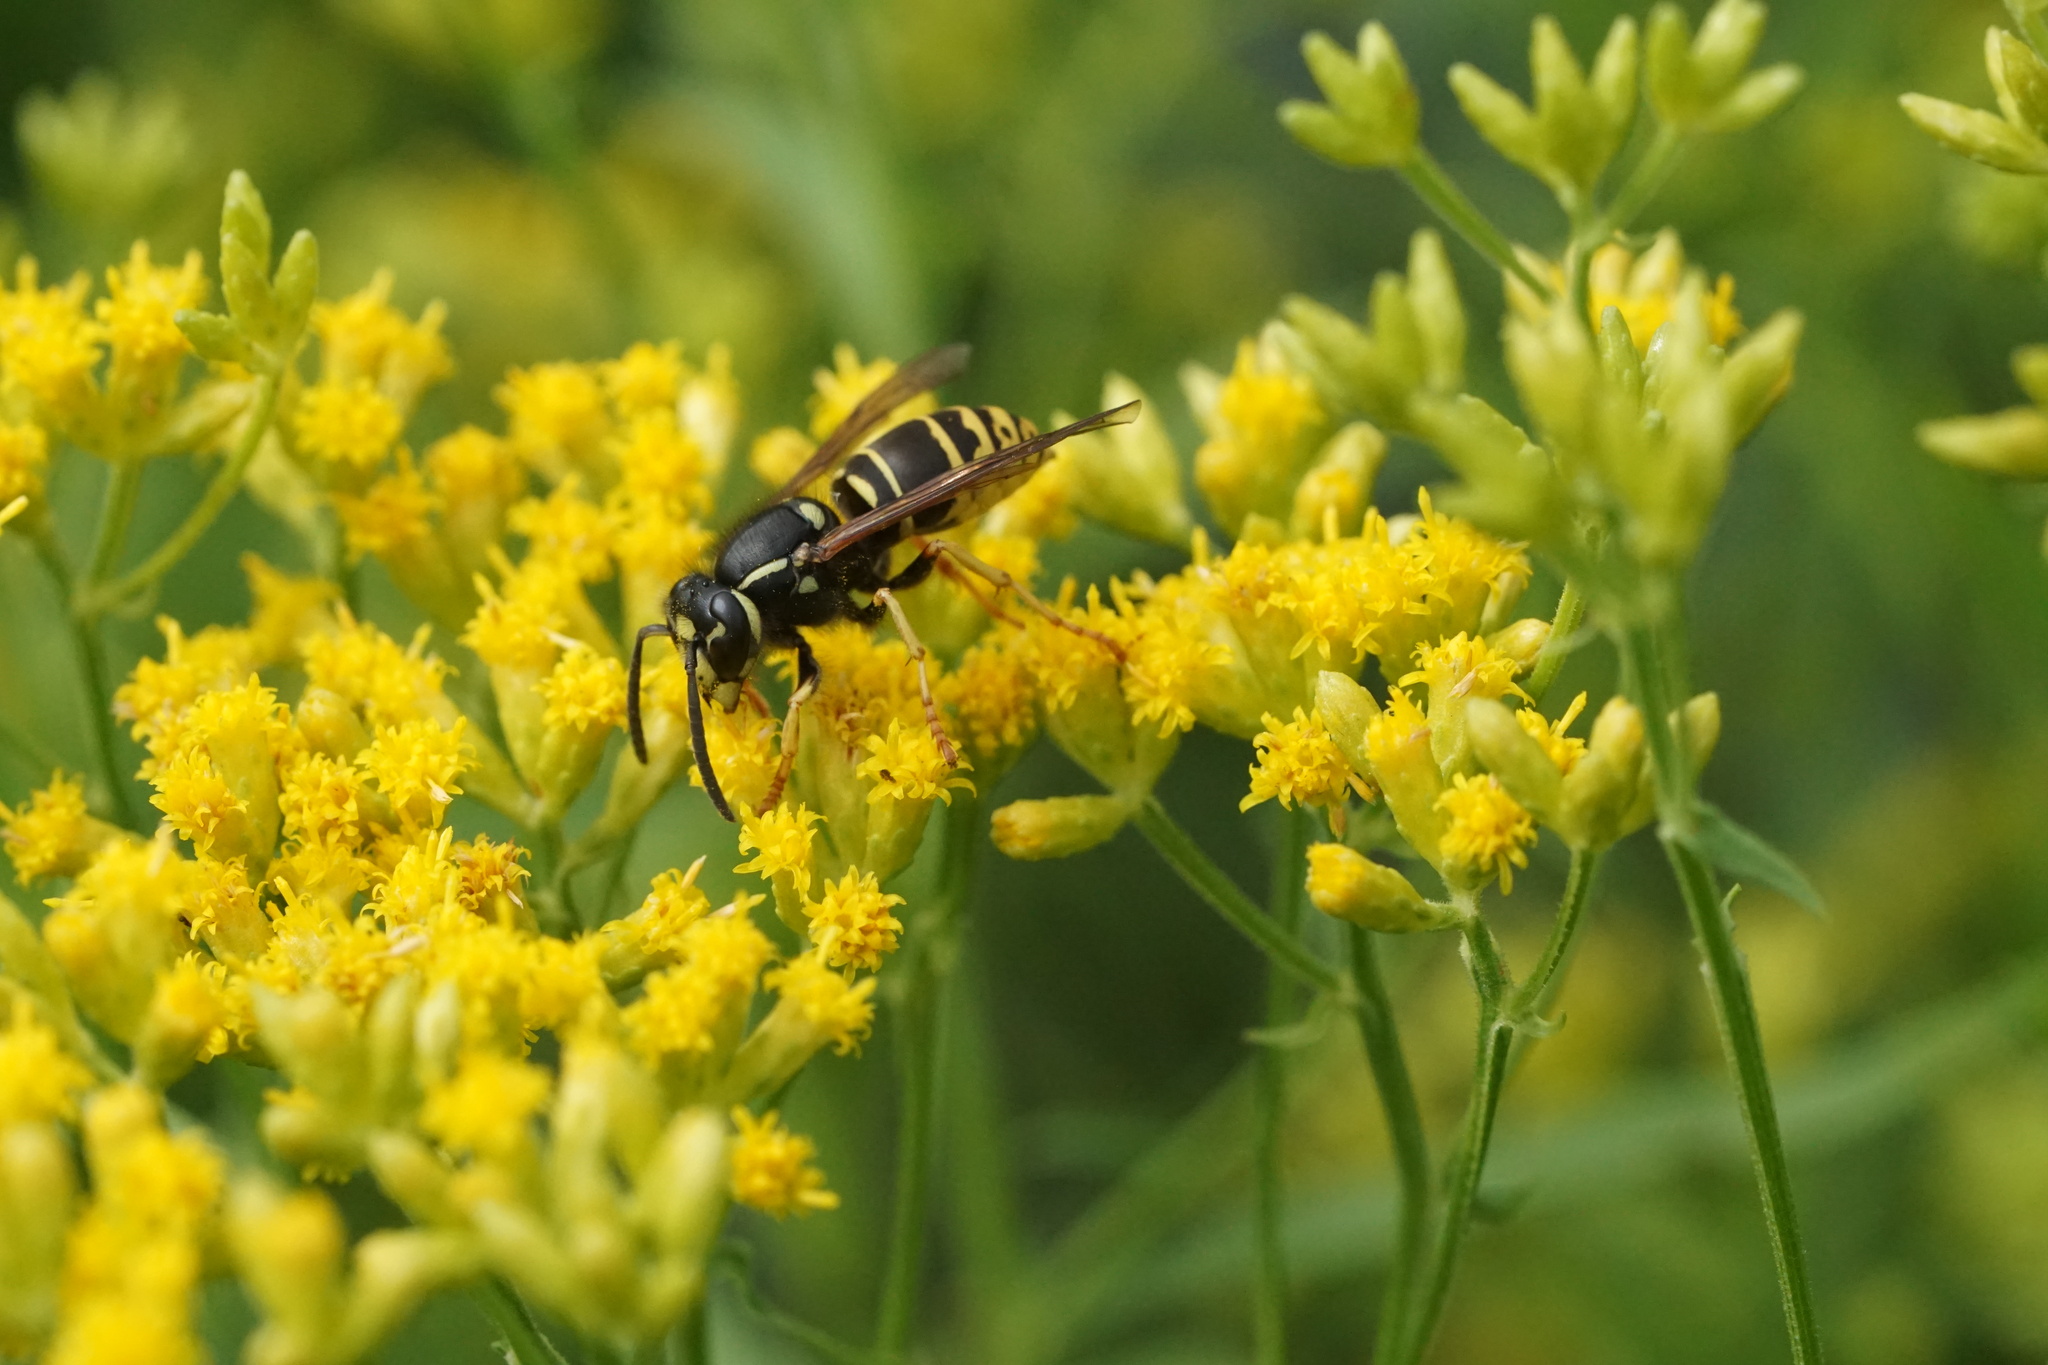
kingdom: Animalia
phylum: Arthropoda
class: Insecta
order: Hymenoptera
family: Vespidae
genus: Vespula
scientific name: Vespula vidua
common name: Widow yellowjacket
